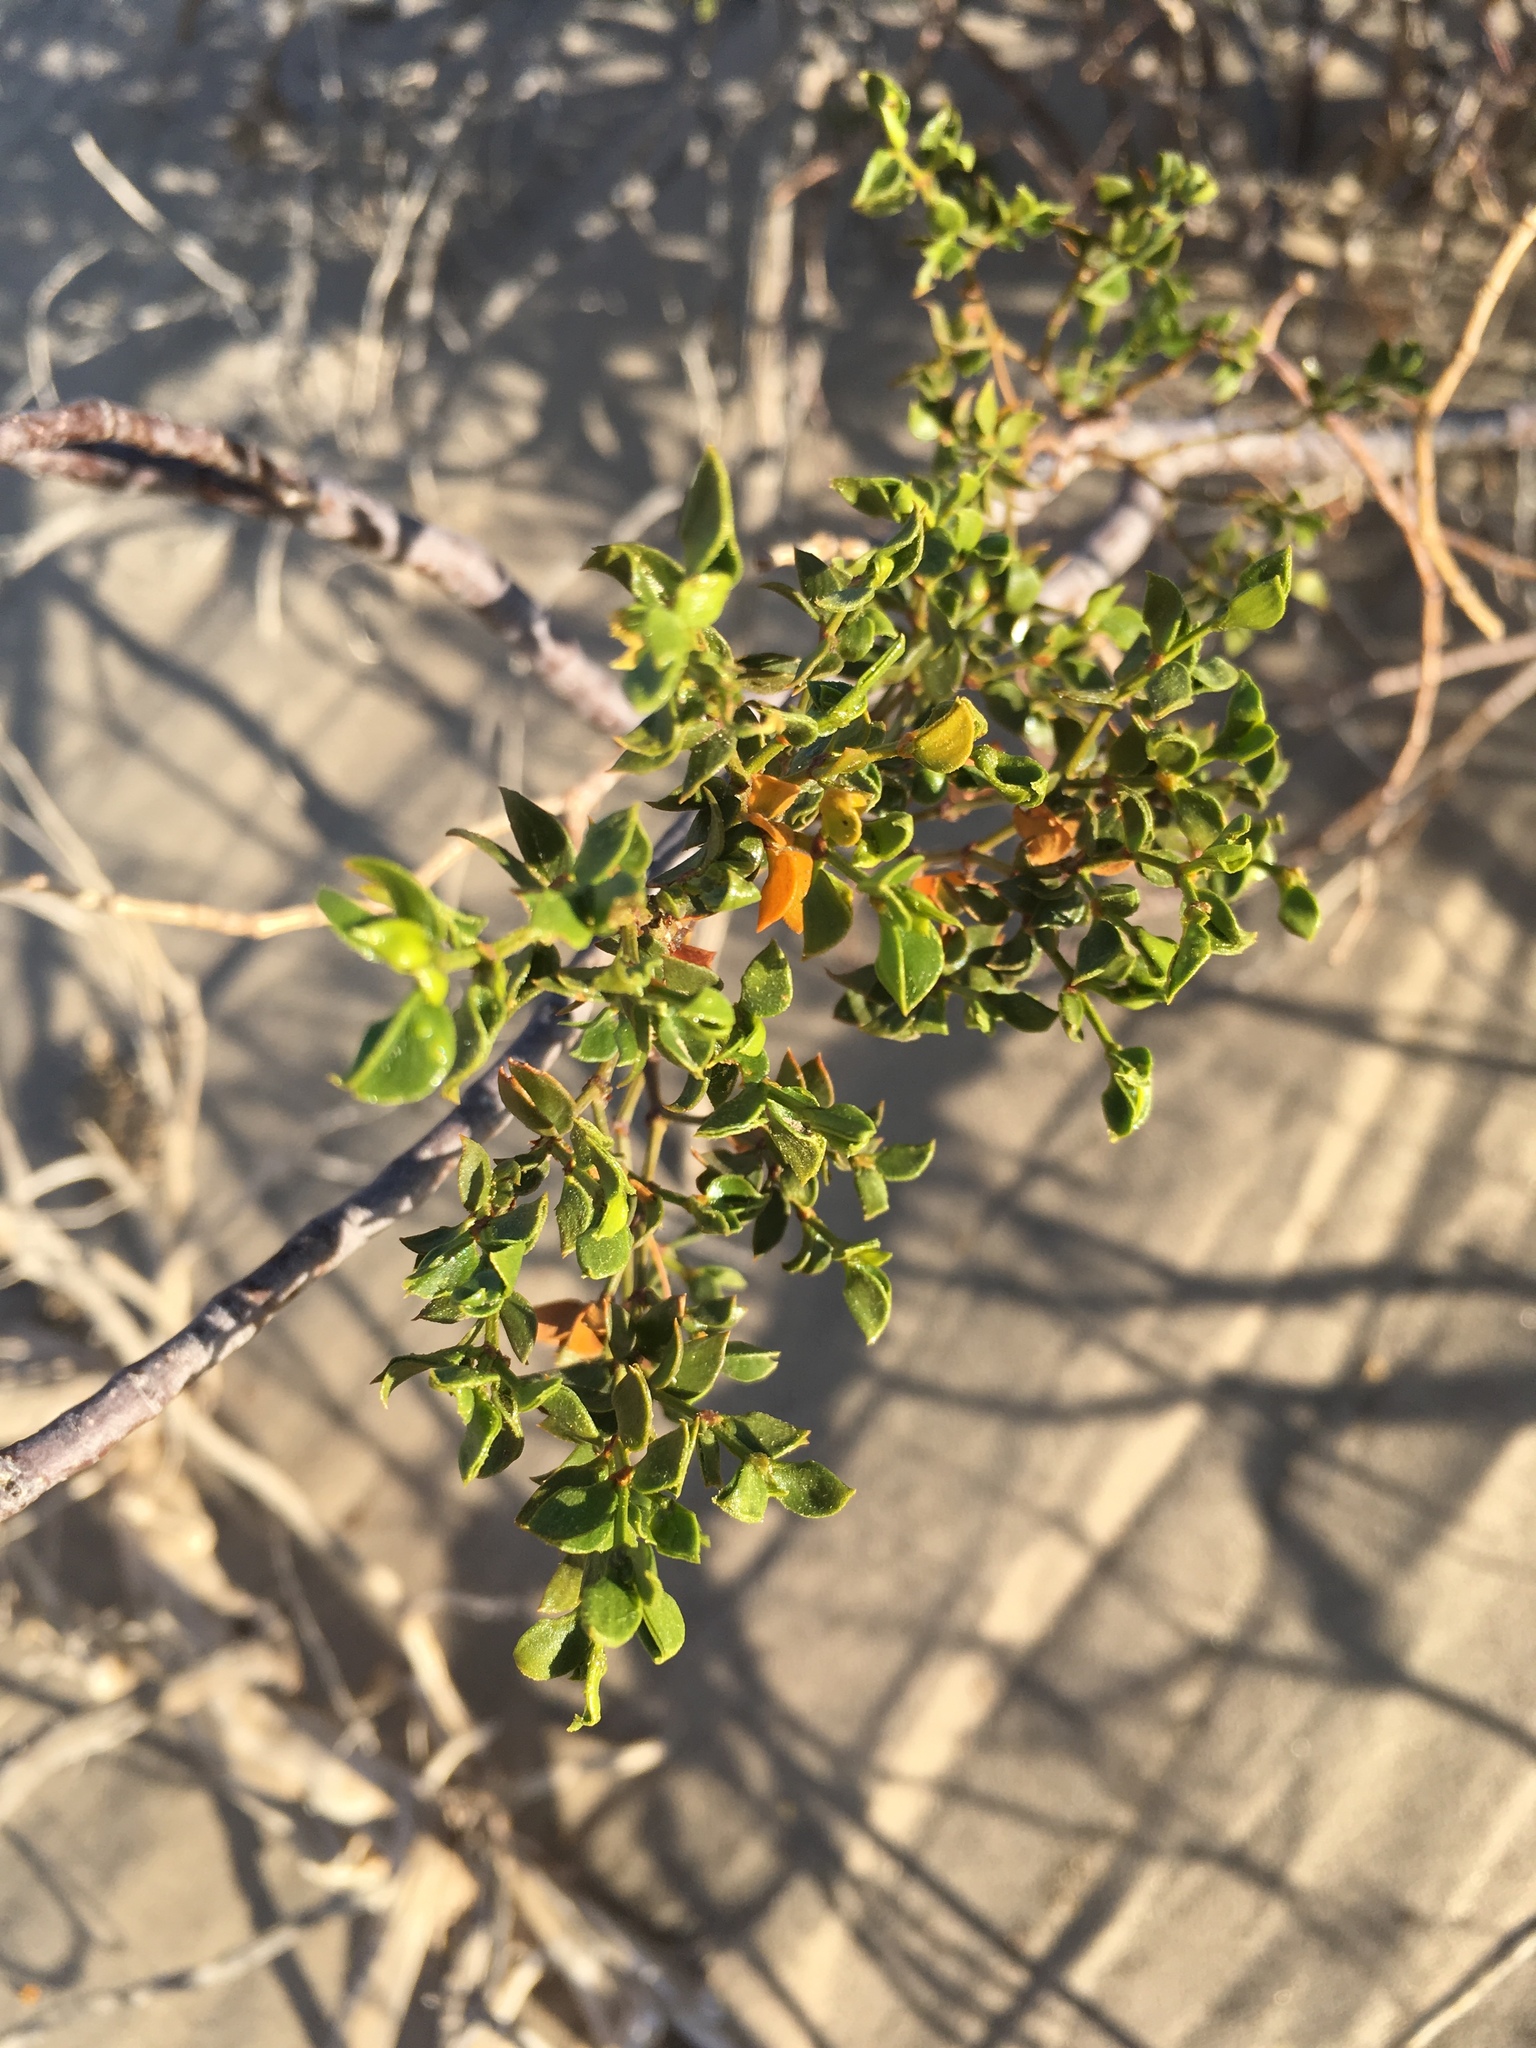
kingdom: Plantae
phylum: Tracheophyta
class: Magnoliopsida
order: Zygophyllales
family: Zygophyllaceae
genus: Larrea
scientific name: Larrea tridentata
